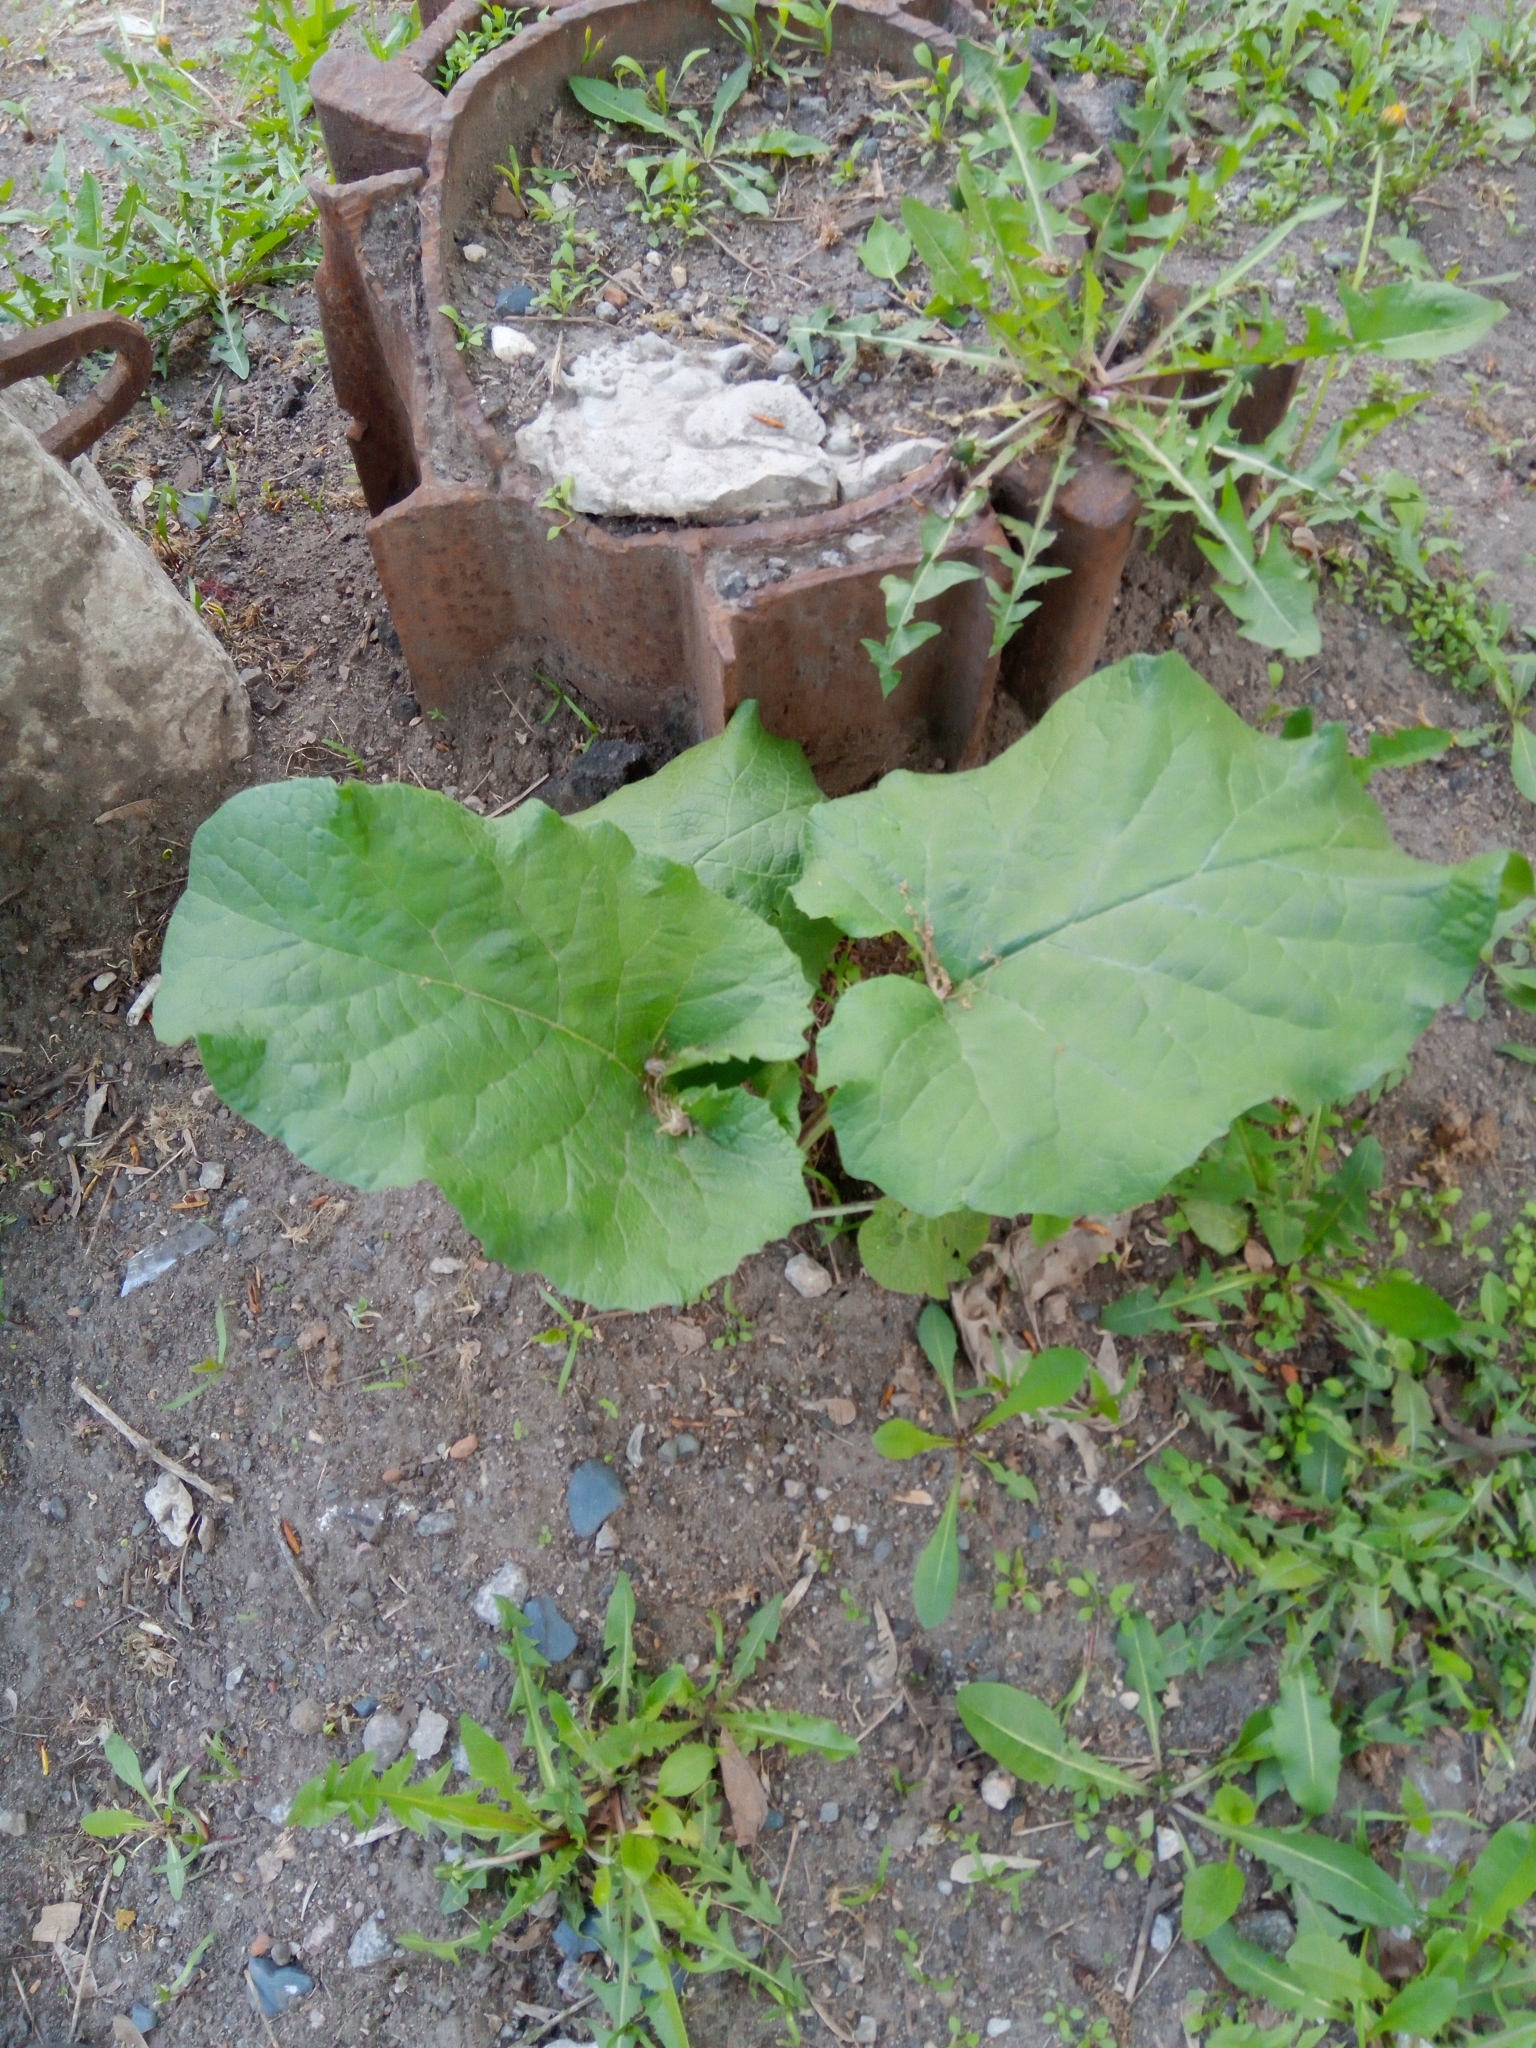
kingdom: Plantae
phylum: Tracheophyta
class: Magnoliopsida
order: Asterales
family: Asteraceae
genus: Arctium
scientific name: Arctium
